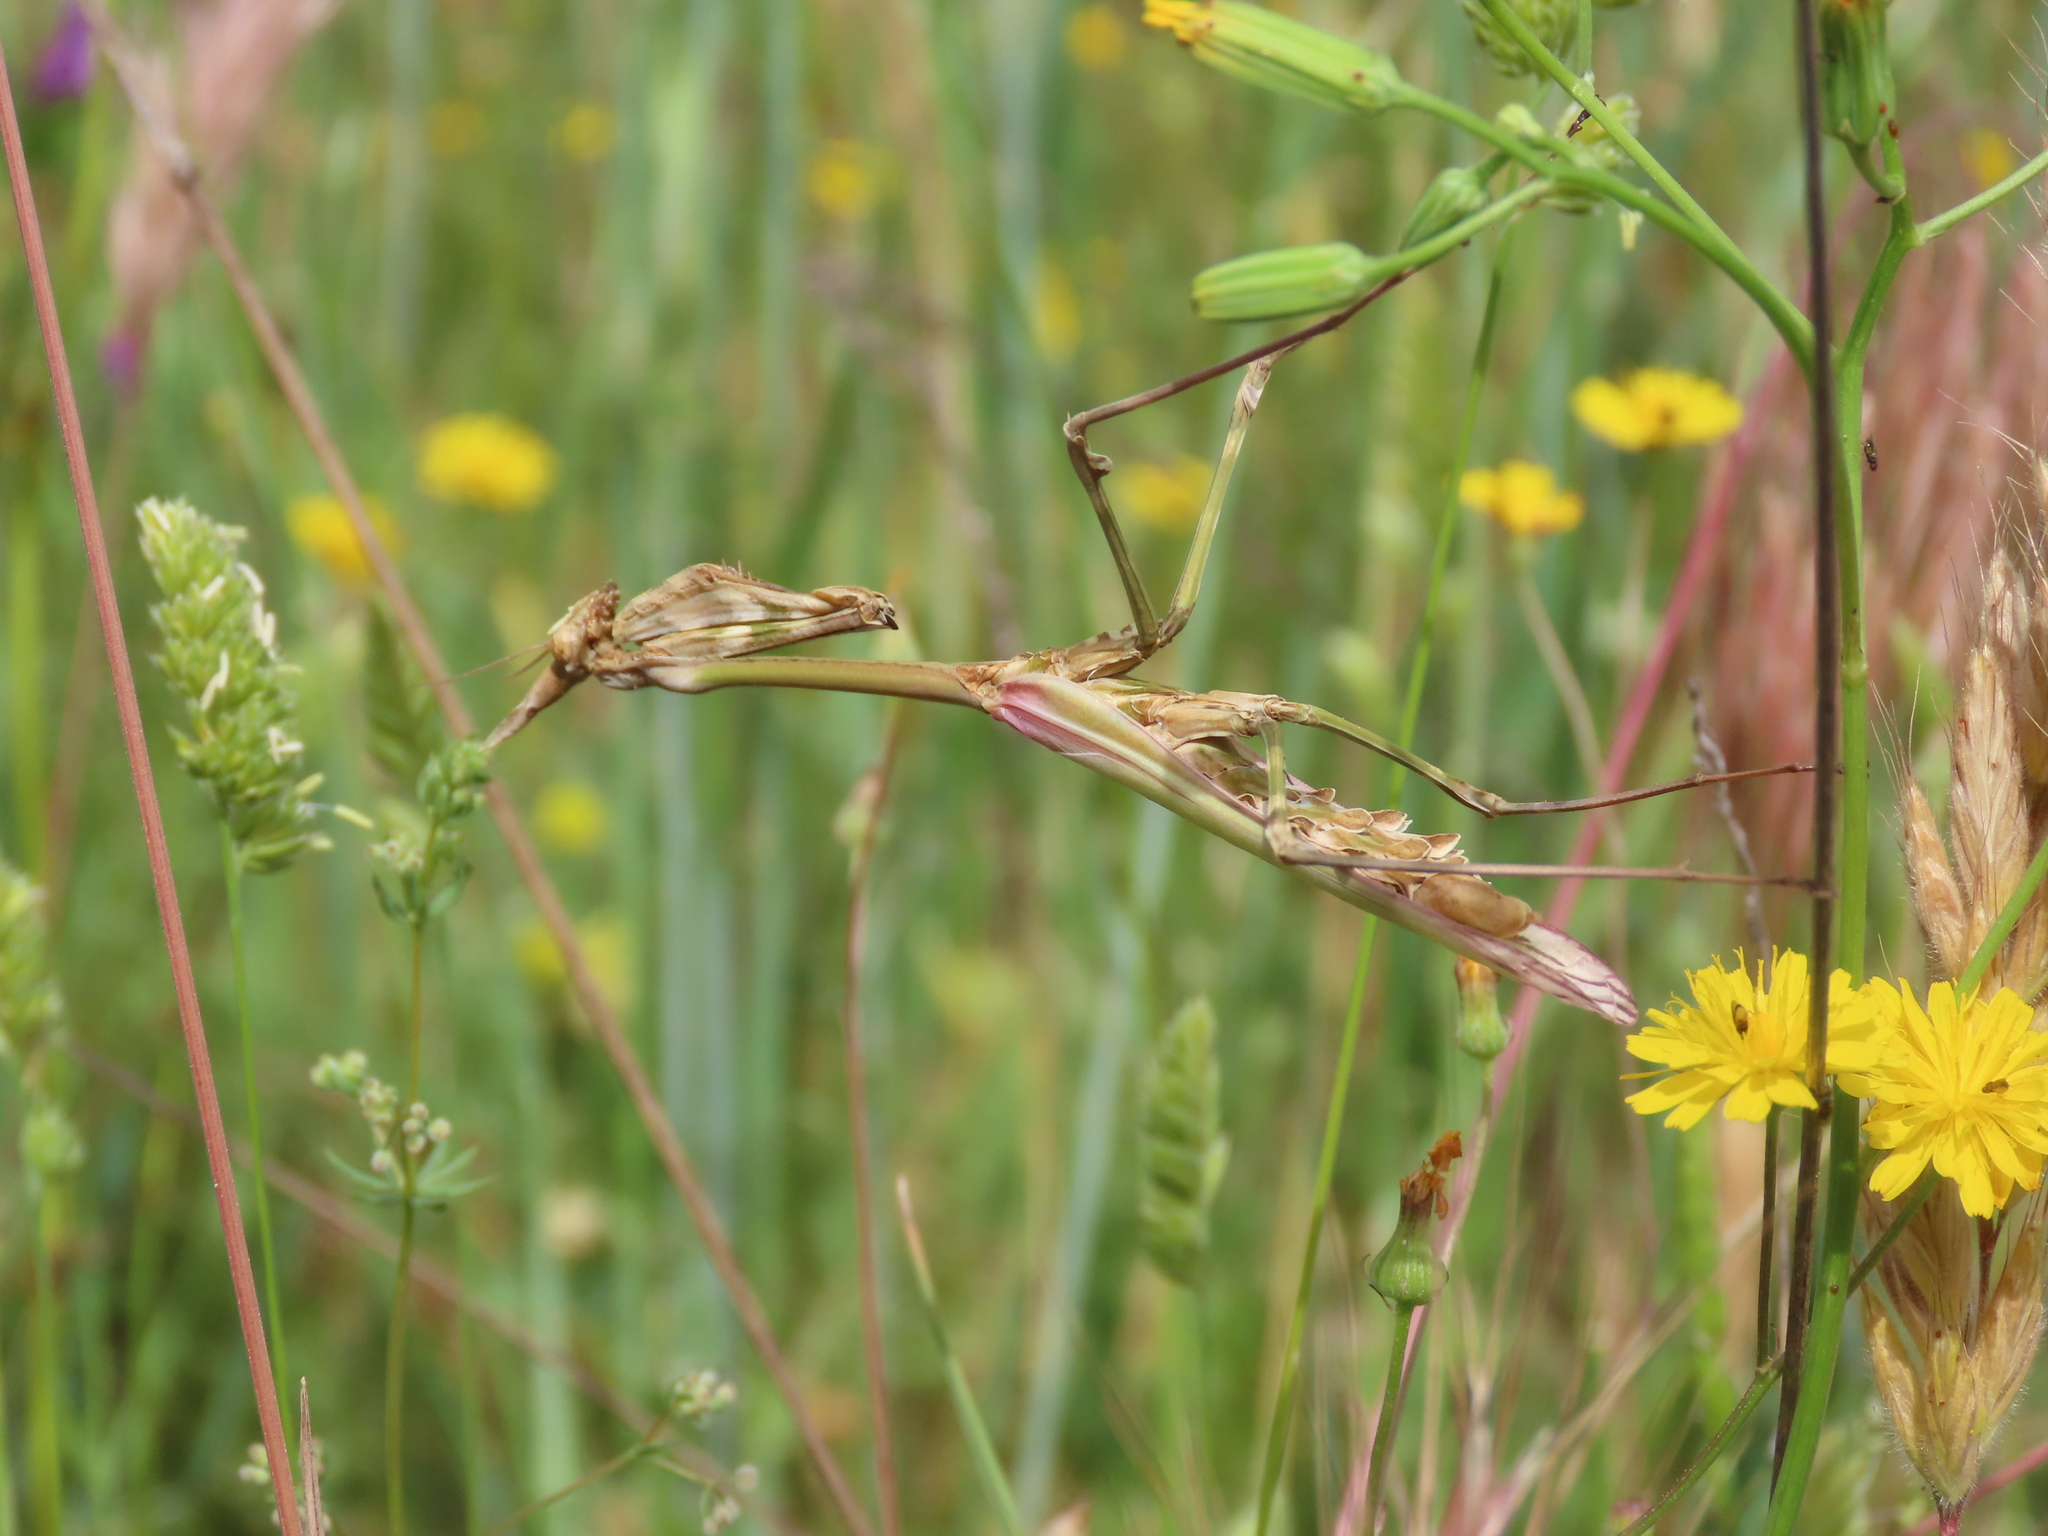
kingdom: Animalia
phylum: Arthropoda
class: Insecta
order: Mantodea
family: Empusidae
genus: Empusa
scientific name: Empusa pennata
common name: Conehead mantis
